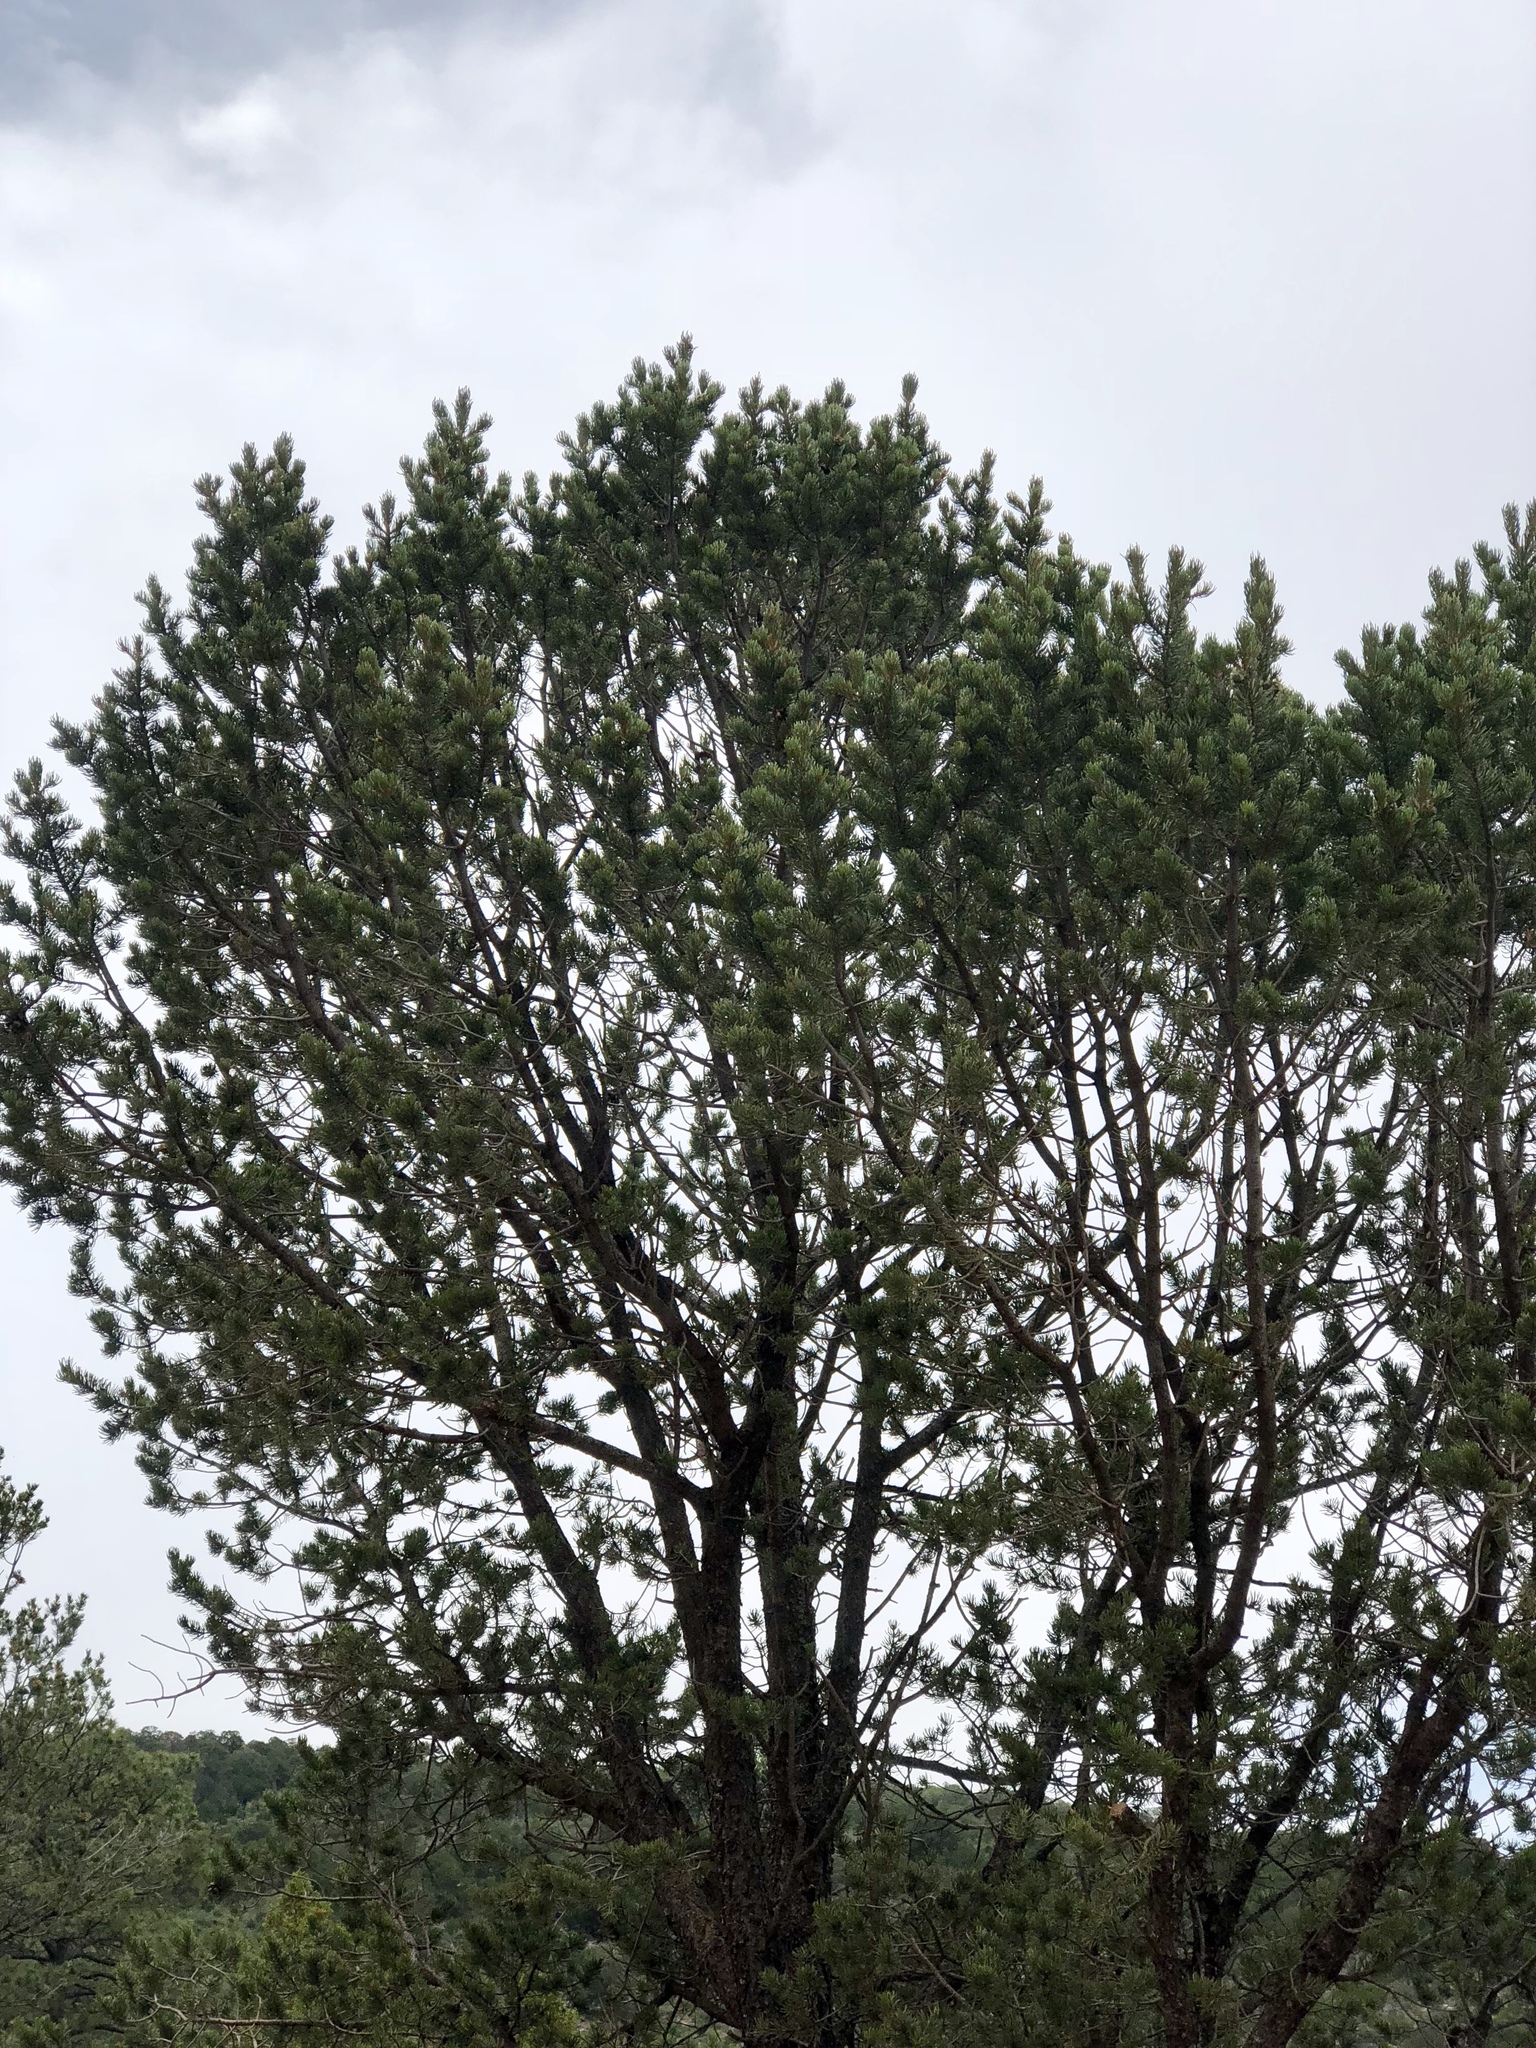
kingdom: Plantae
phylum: Tracheophyta
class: Pinopsida
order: Pinales
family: Pinaceae
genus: Pinus
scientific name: Pinus edulis
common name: Colorado pinyon
